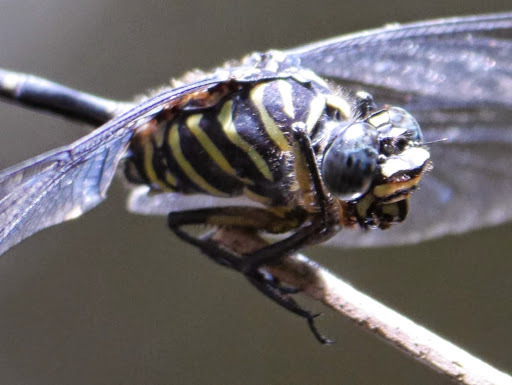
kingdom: Animalia
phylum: Arthropoda
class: Insecta
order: Odonata
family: Gomphidae
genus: Ictinogomphus
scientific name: Ictinogomphus regisalberti
